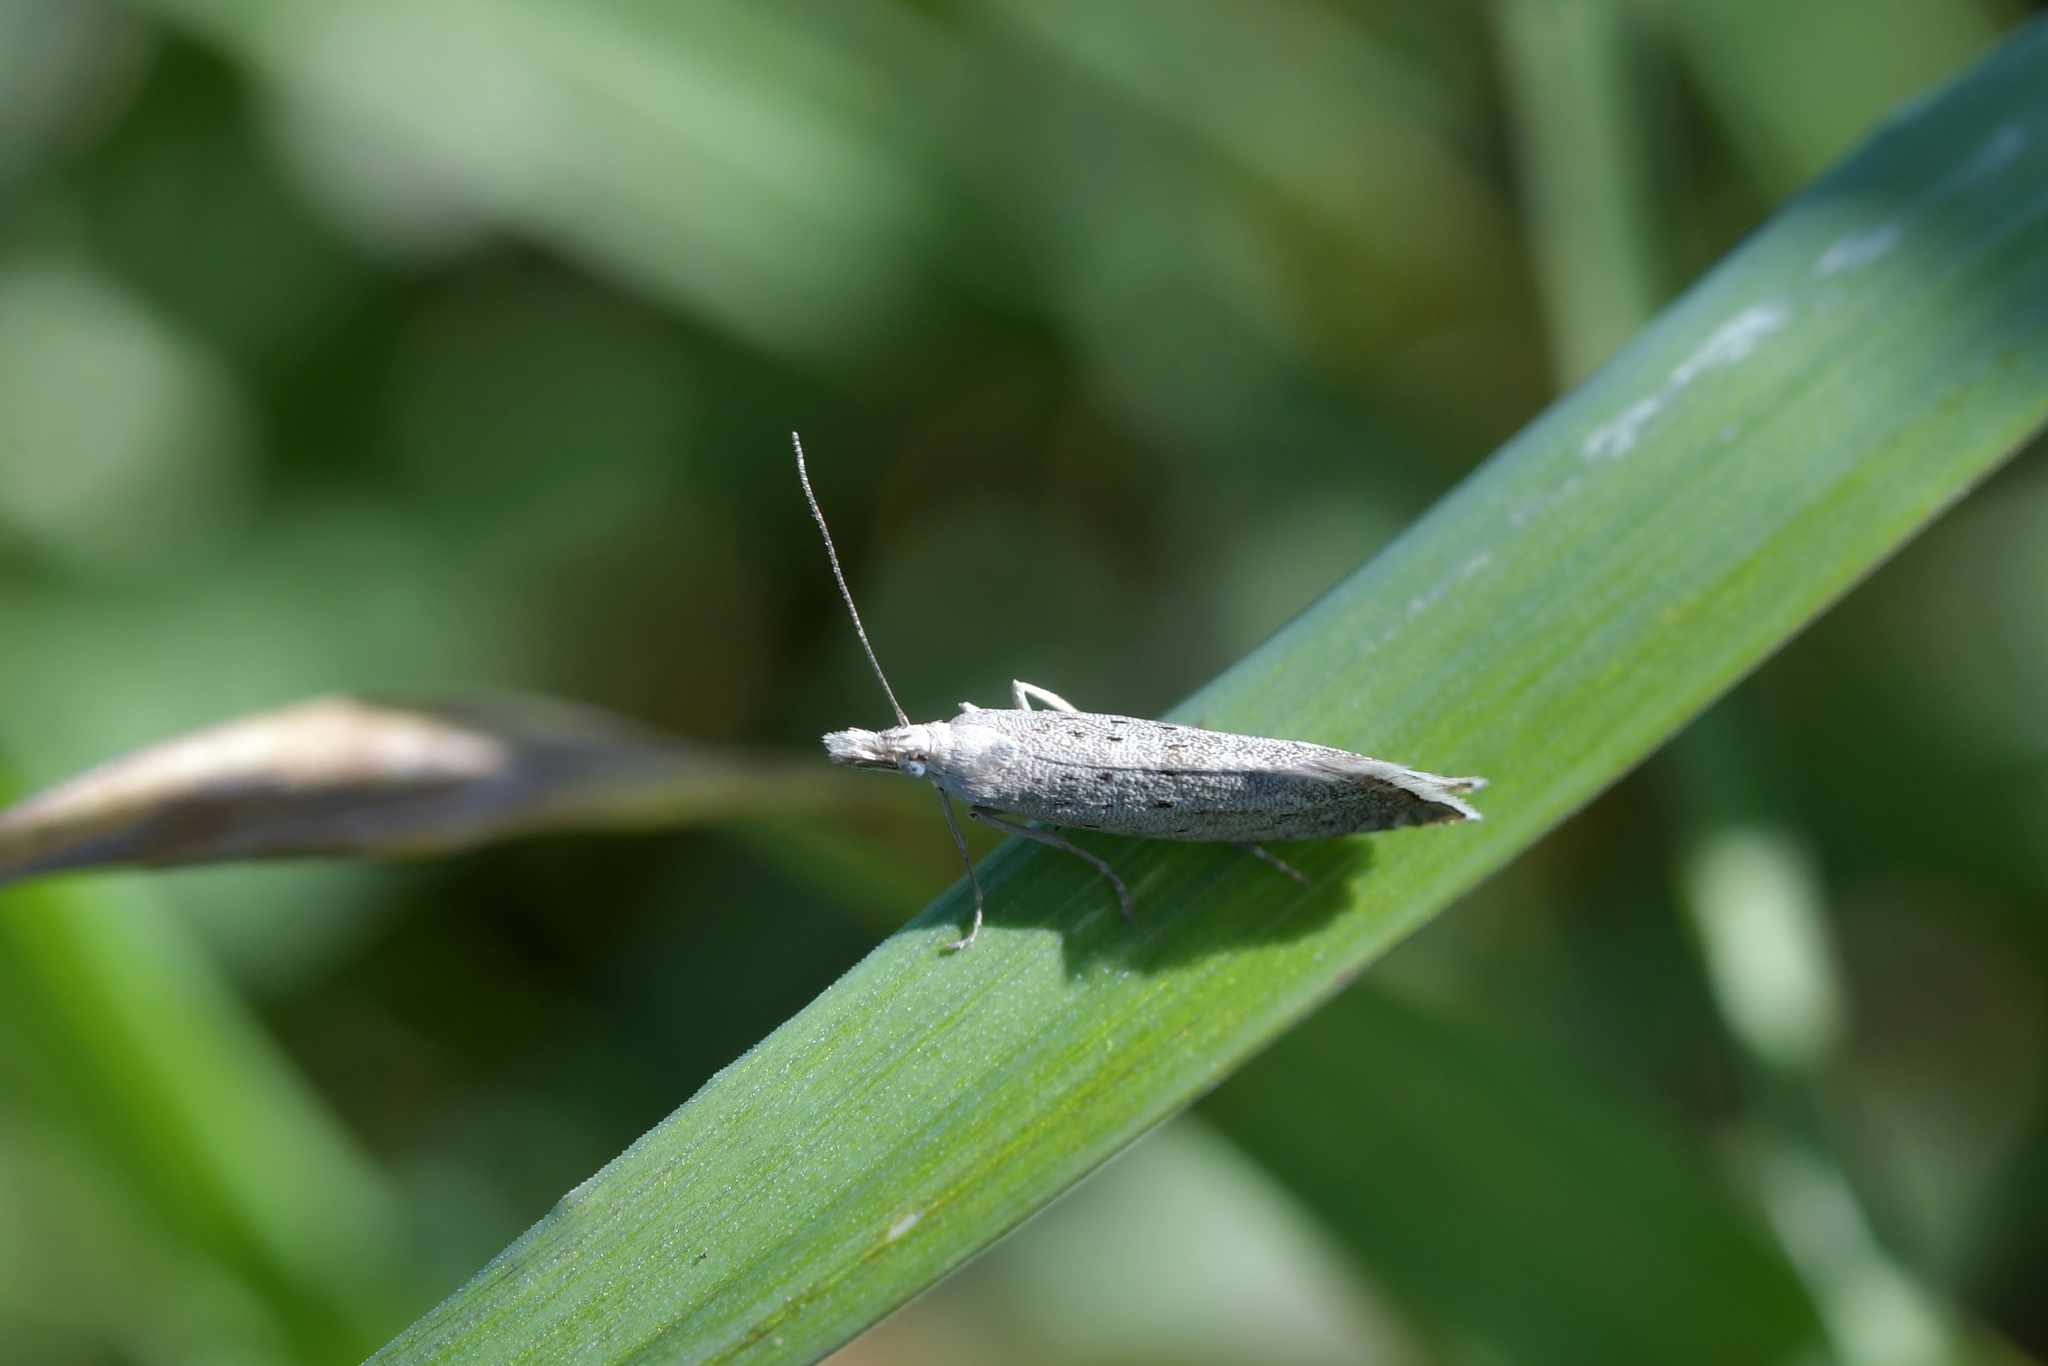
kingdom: Animalia
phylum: Arthropoda
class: Insecta
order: Lepidoptera
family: Glyphipterigidae
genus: Glyphipterix
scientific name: Glyphipterix achlyoessa
